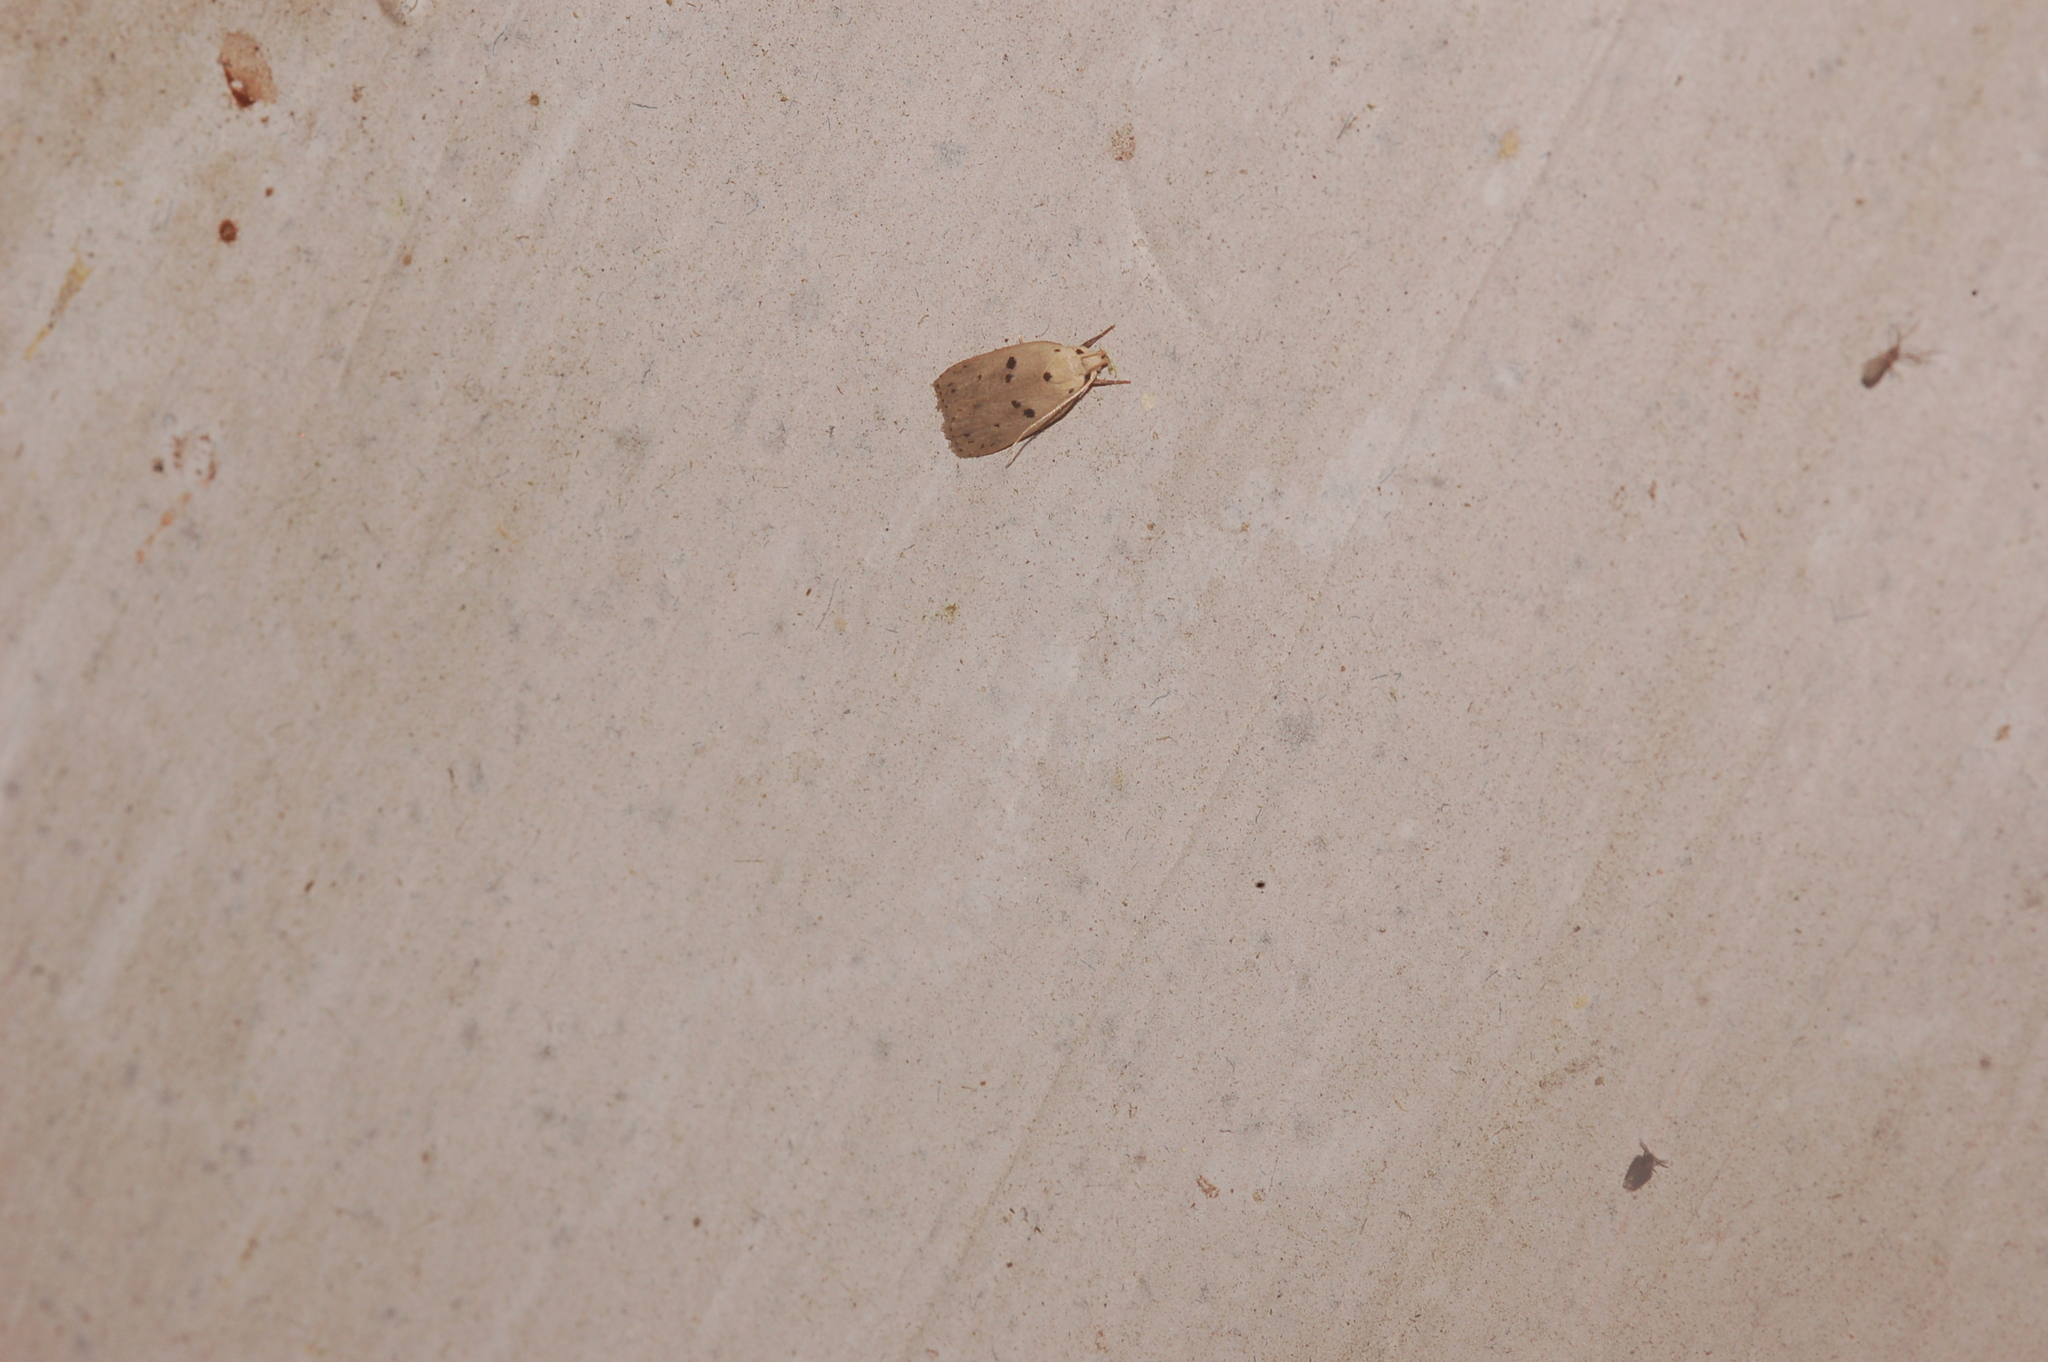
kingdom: Animalia
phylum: Arthropoda
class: Insecta
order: Lepidoptera
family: Peleopodidae
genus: Scythropiodes
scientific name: Scythropiodes issikii
